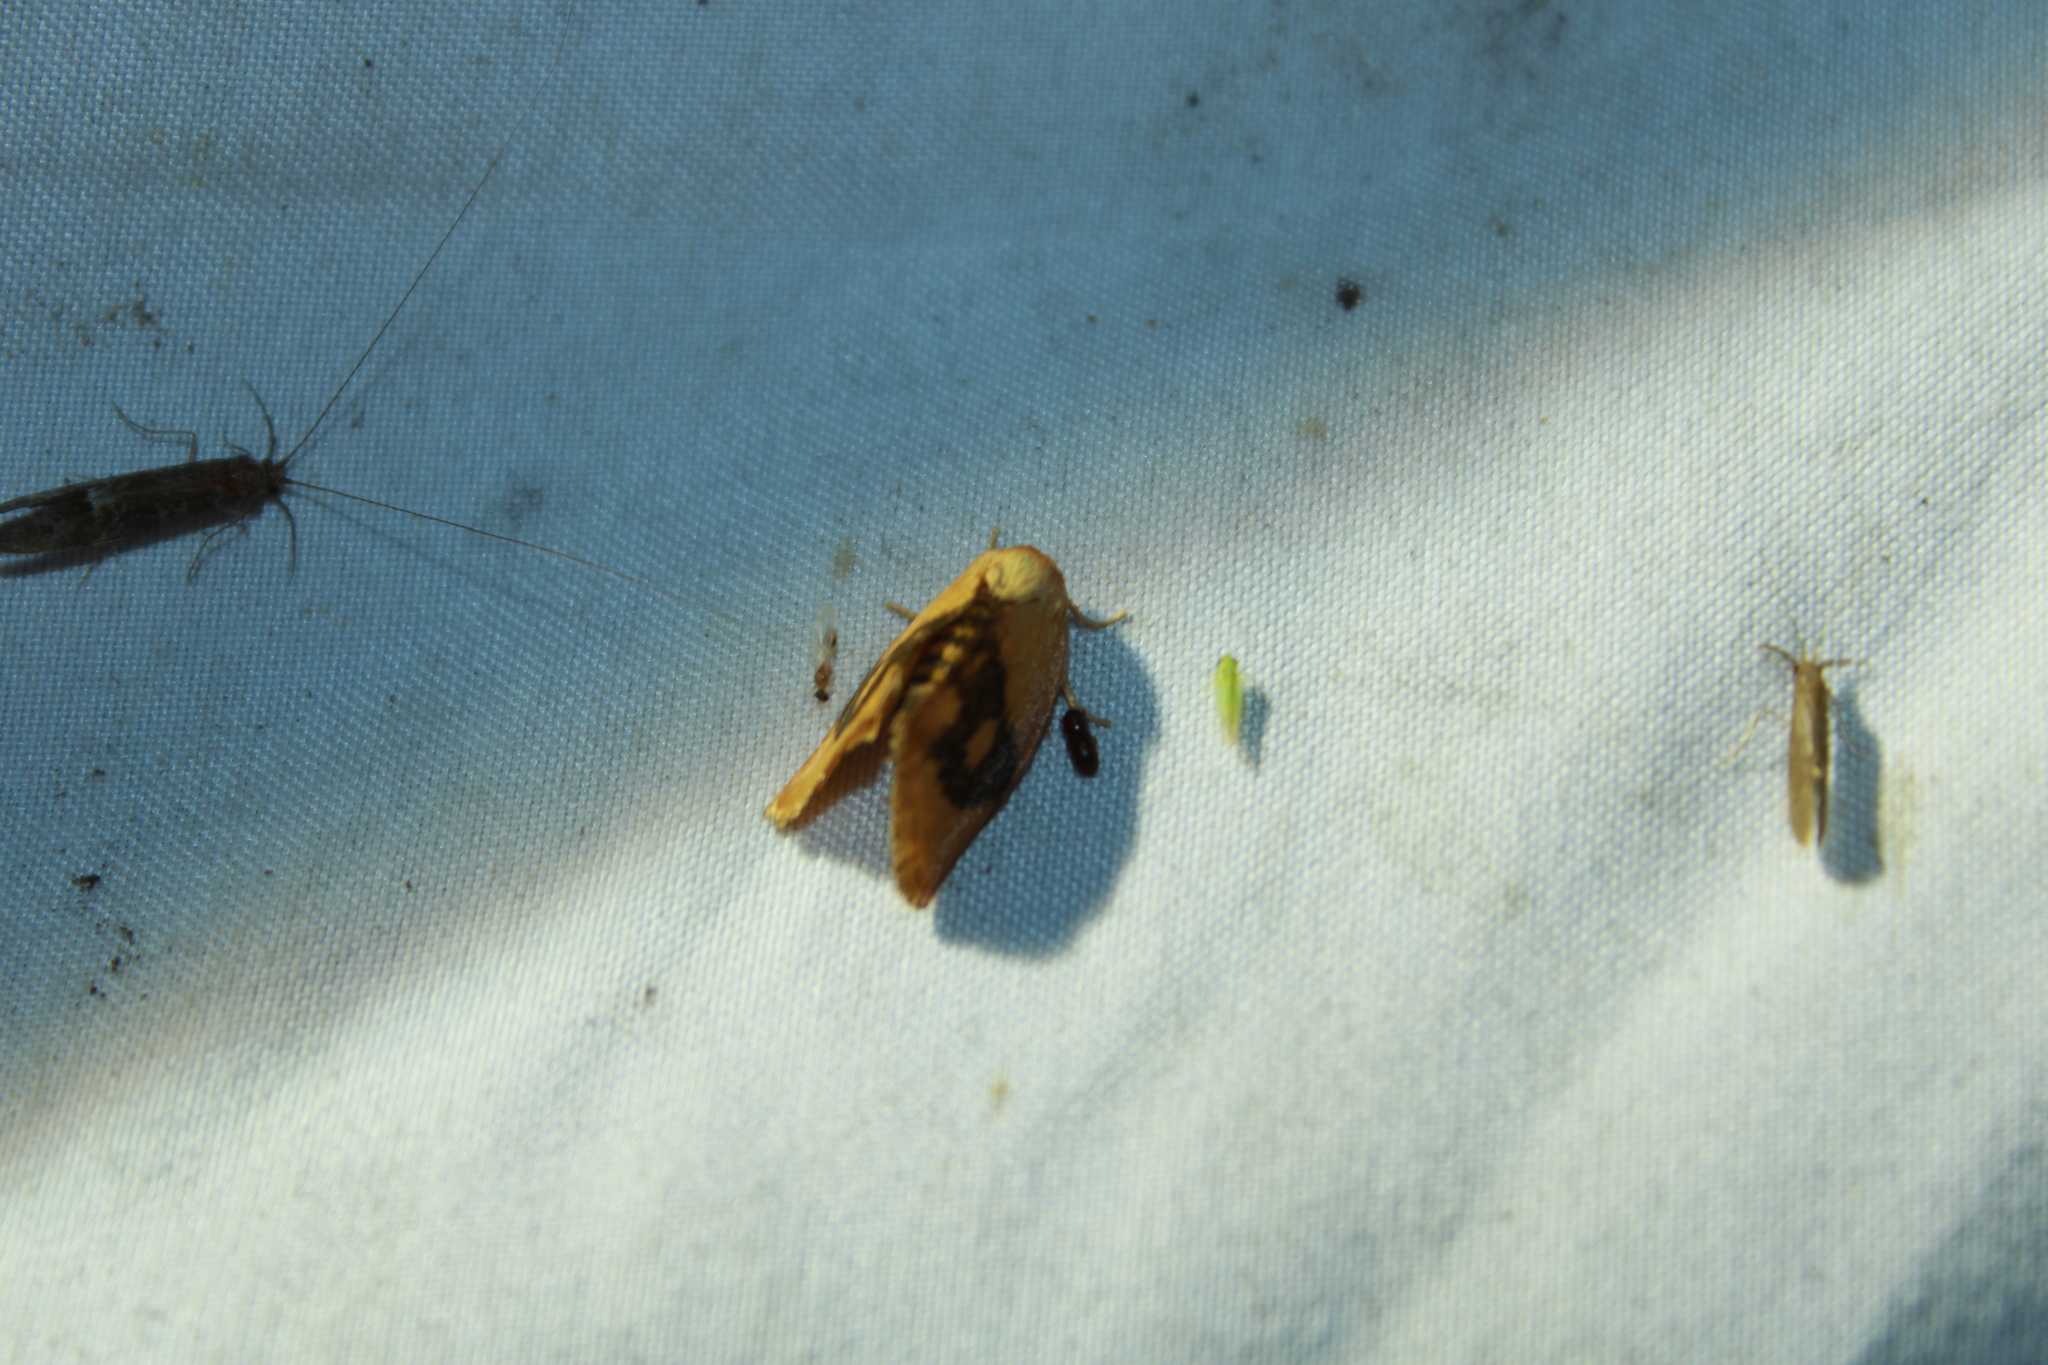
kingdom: Animalia
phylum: Arthropoda
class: Insecta
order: Lepidoptera
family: Limacodidae
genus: Tortricidia
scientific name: Tortricidia flexuosa
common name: Abbreviated button slug moth
